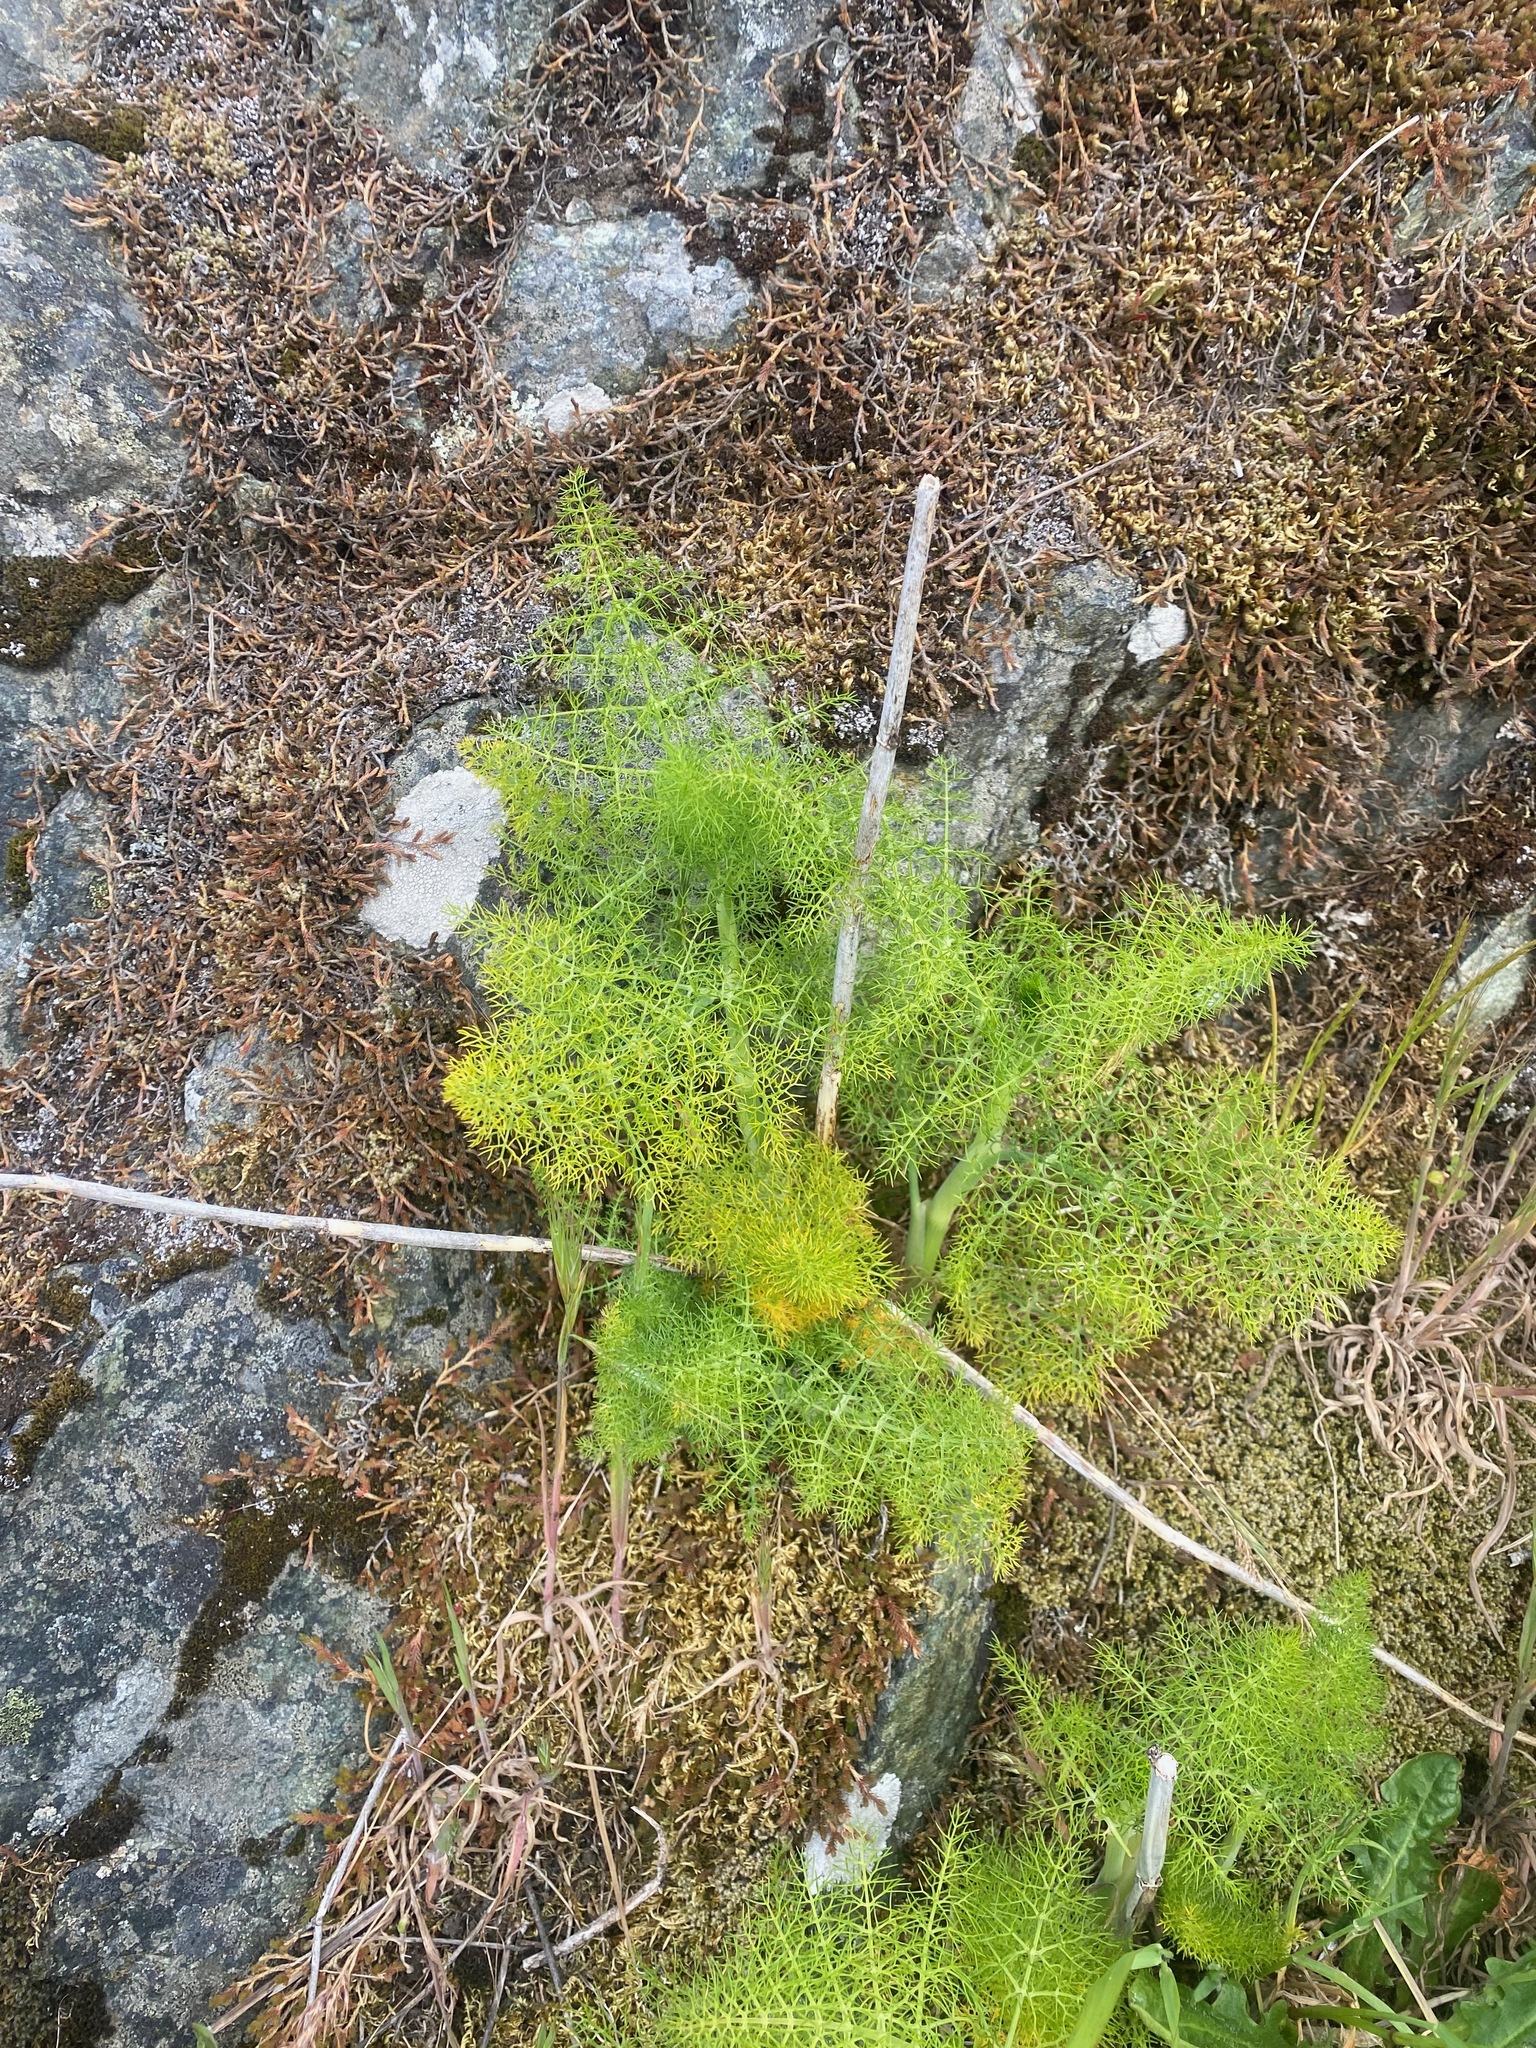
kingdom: Plantae
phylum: Tracheophyta
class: Magnoliopsida
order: Apiales
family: Apiaceae
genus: Foeniculum
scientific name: Foeniculum vulgare
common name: Fennel
